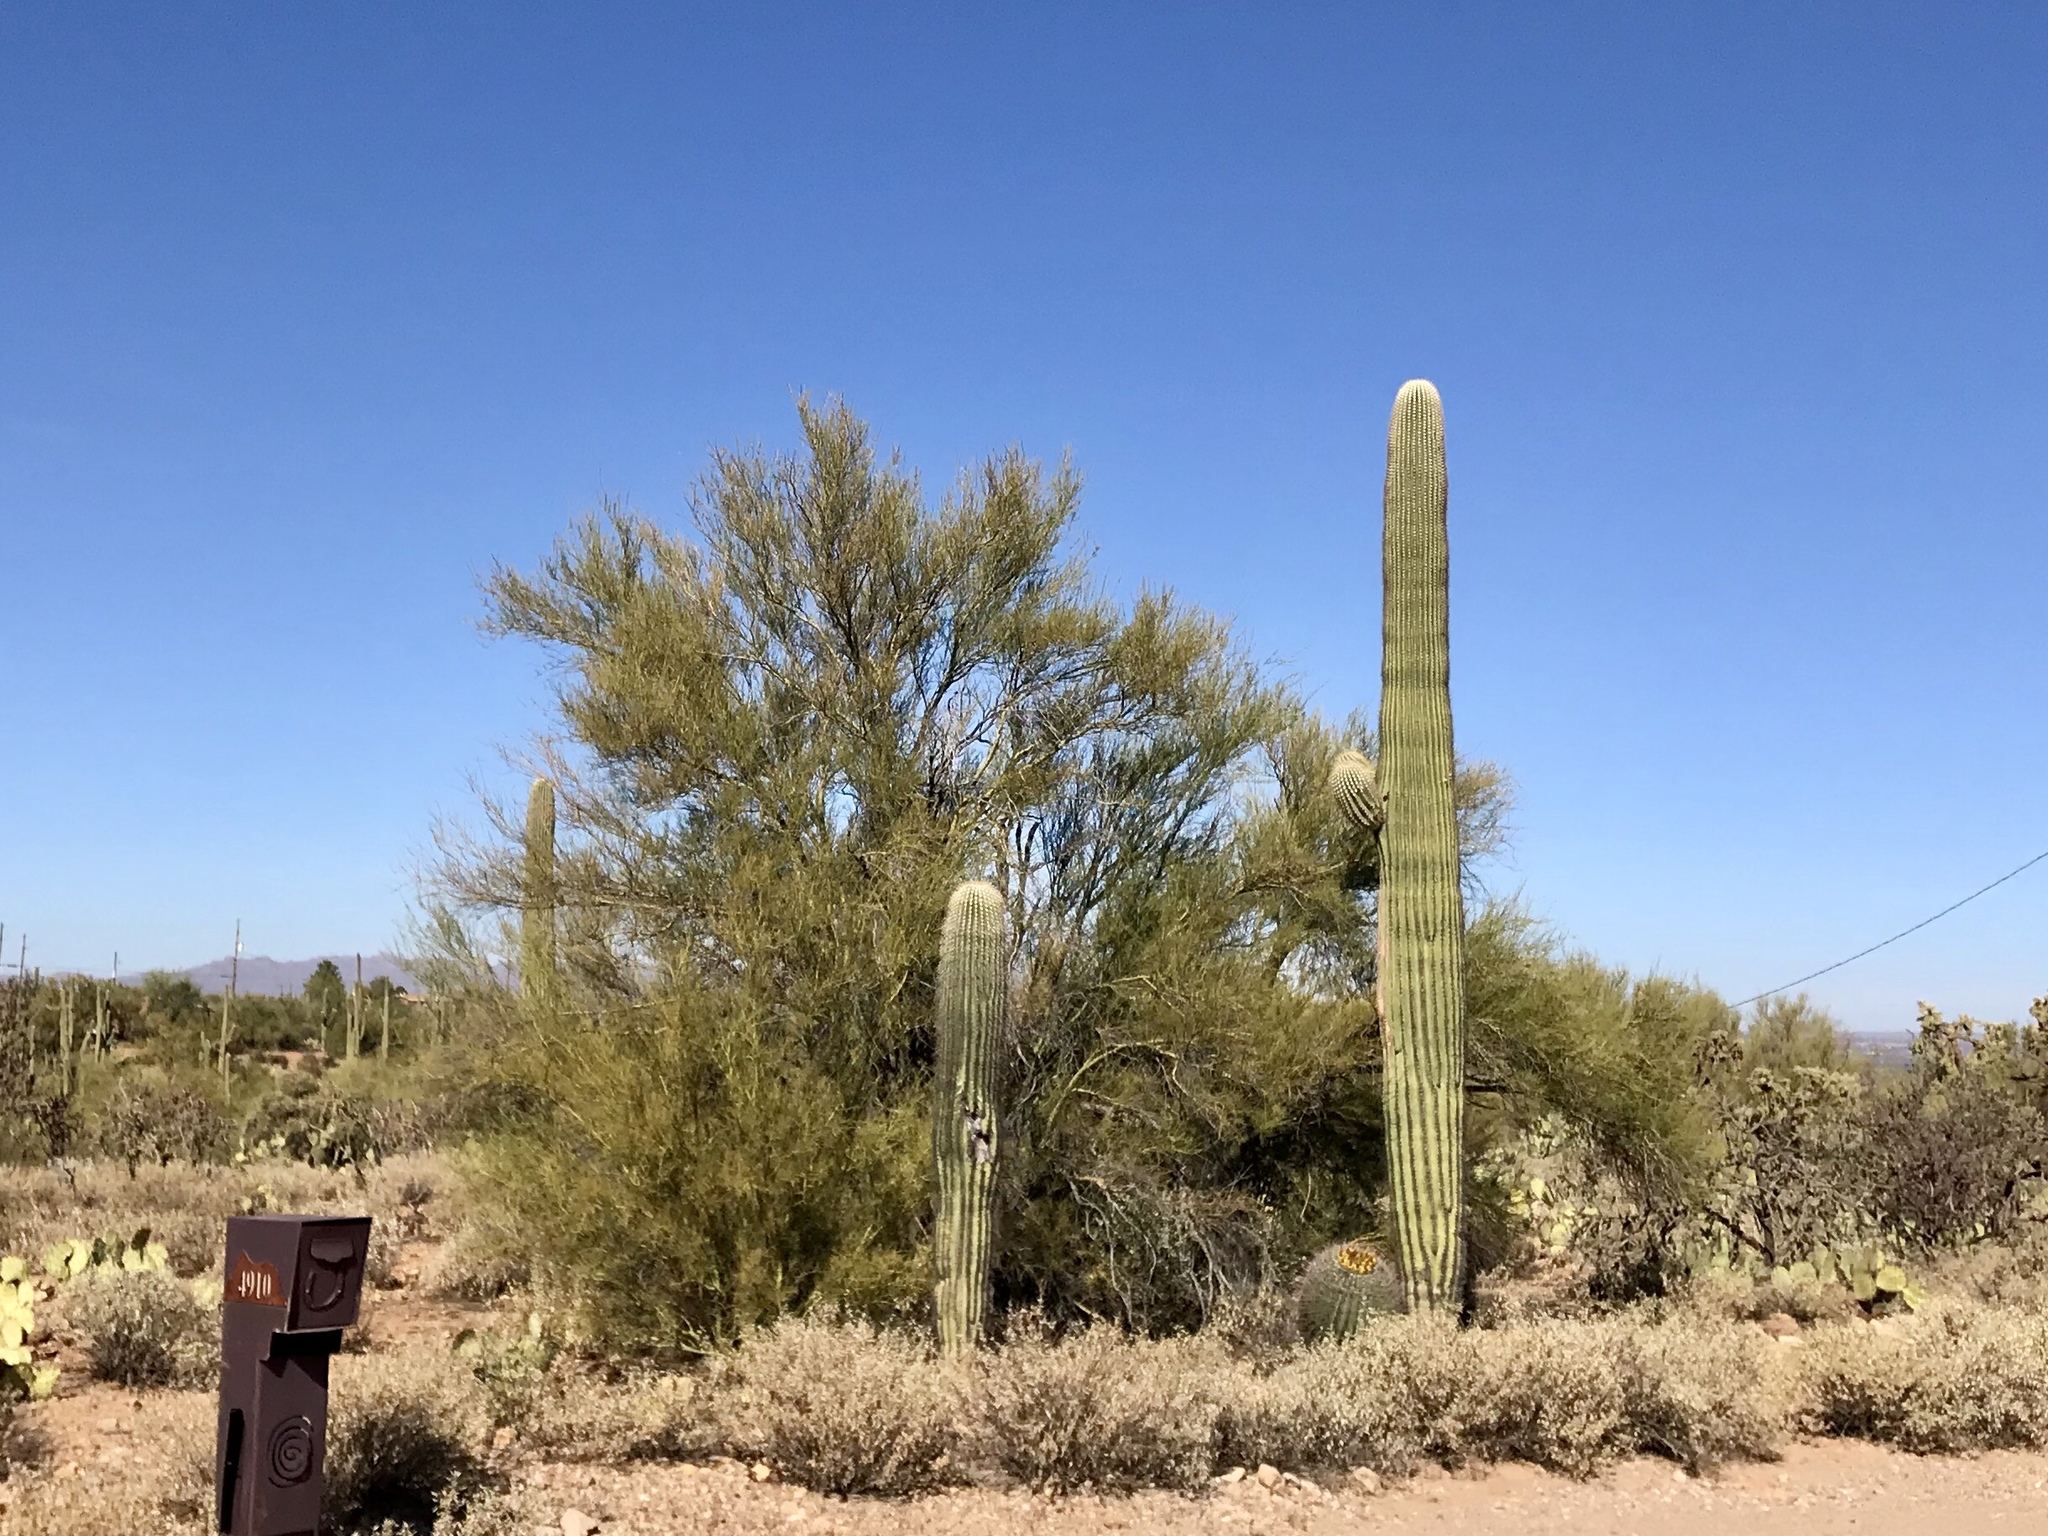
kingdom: Plantae
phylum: Tracheophyta
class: Magnoliopsida
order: Caryophyllales
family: Cactaceae
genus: Carnegiea
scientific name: Carnegiea gigantea
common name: Saguaro
